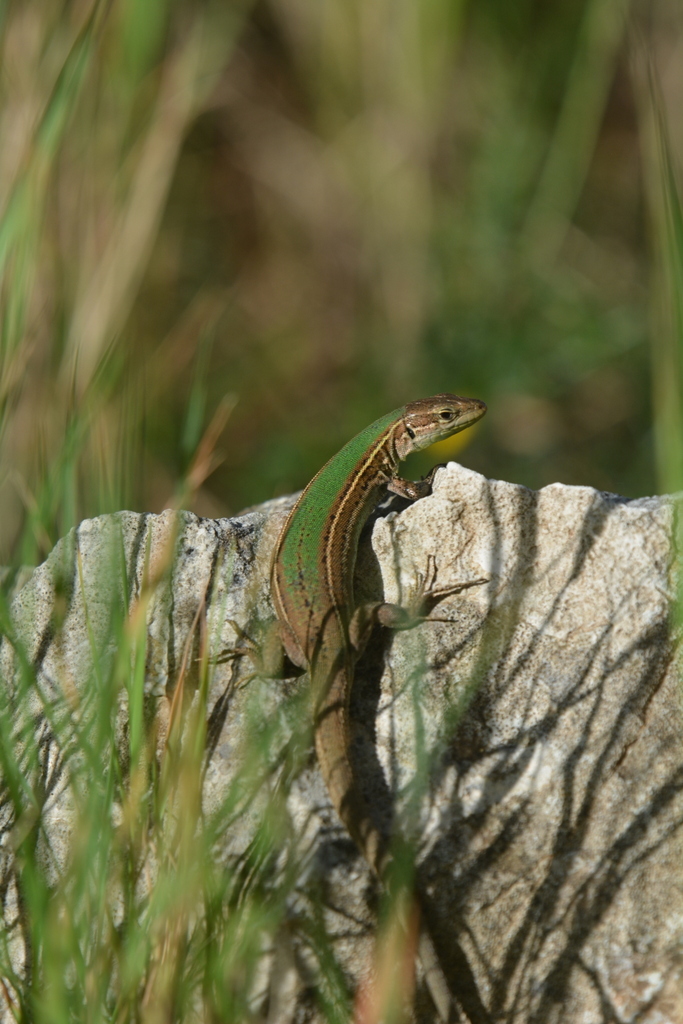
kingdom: Animalia
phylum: Chordata
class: Squamata
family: Lacertidae
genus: Podarcis
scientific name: Podarcis melisellensis
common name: Dalmatian wall lizard
